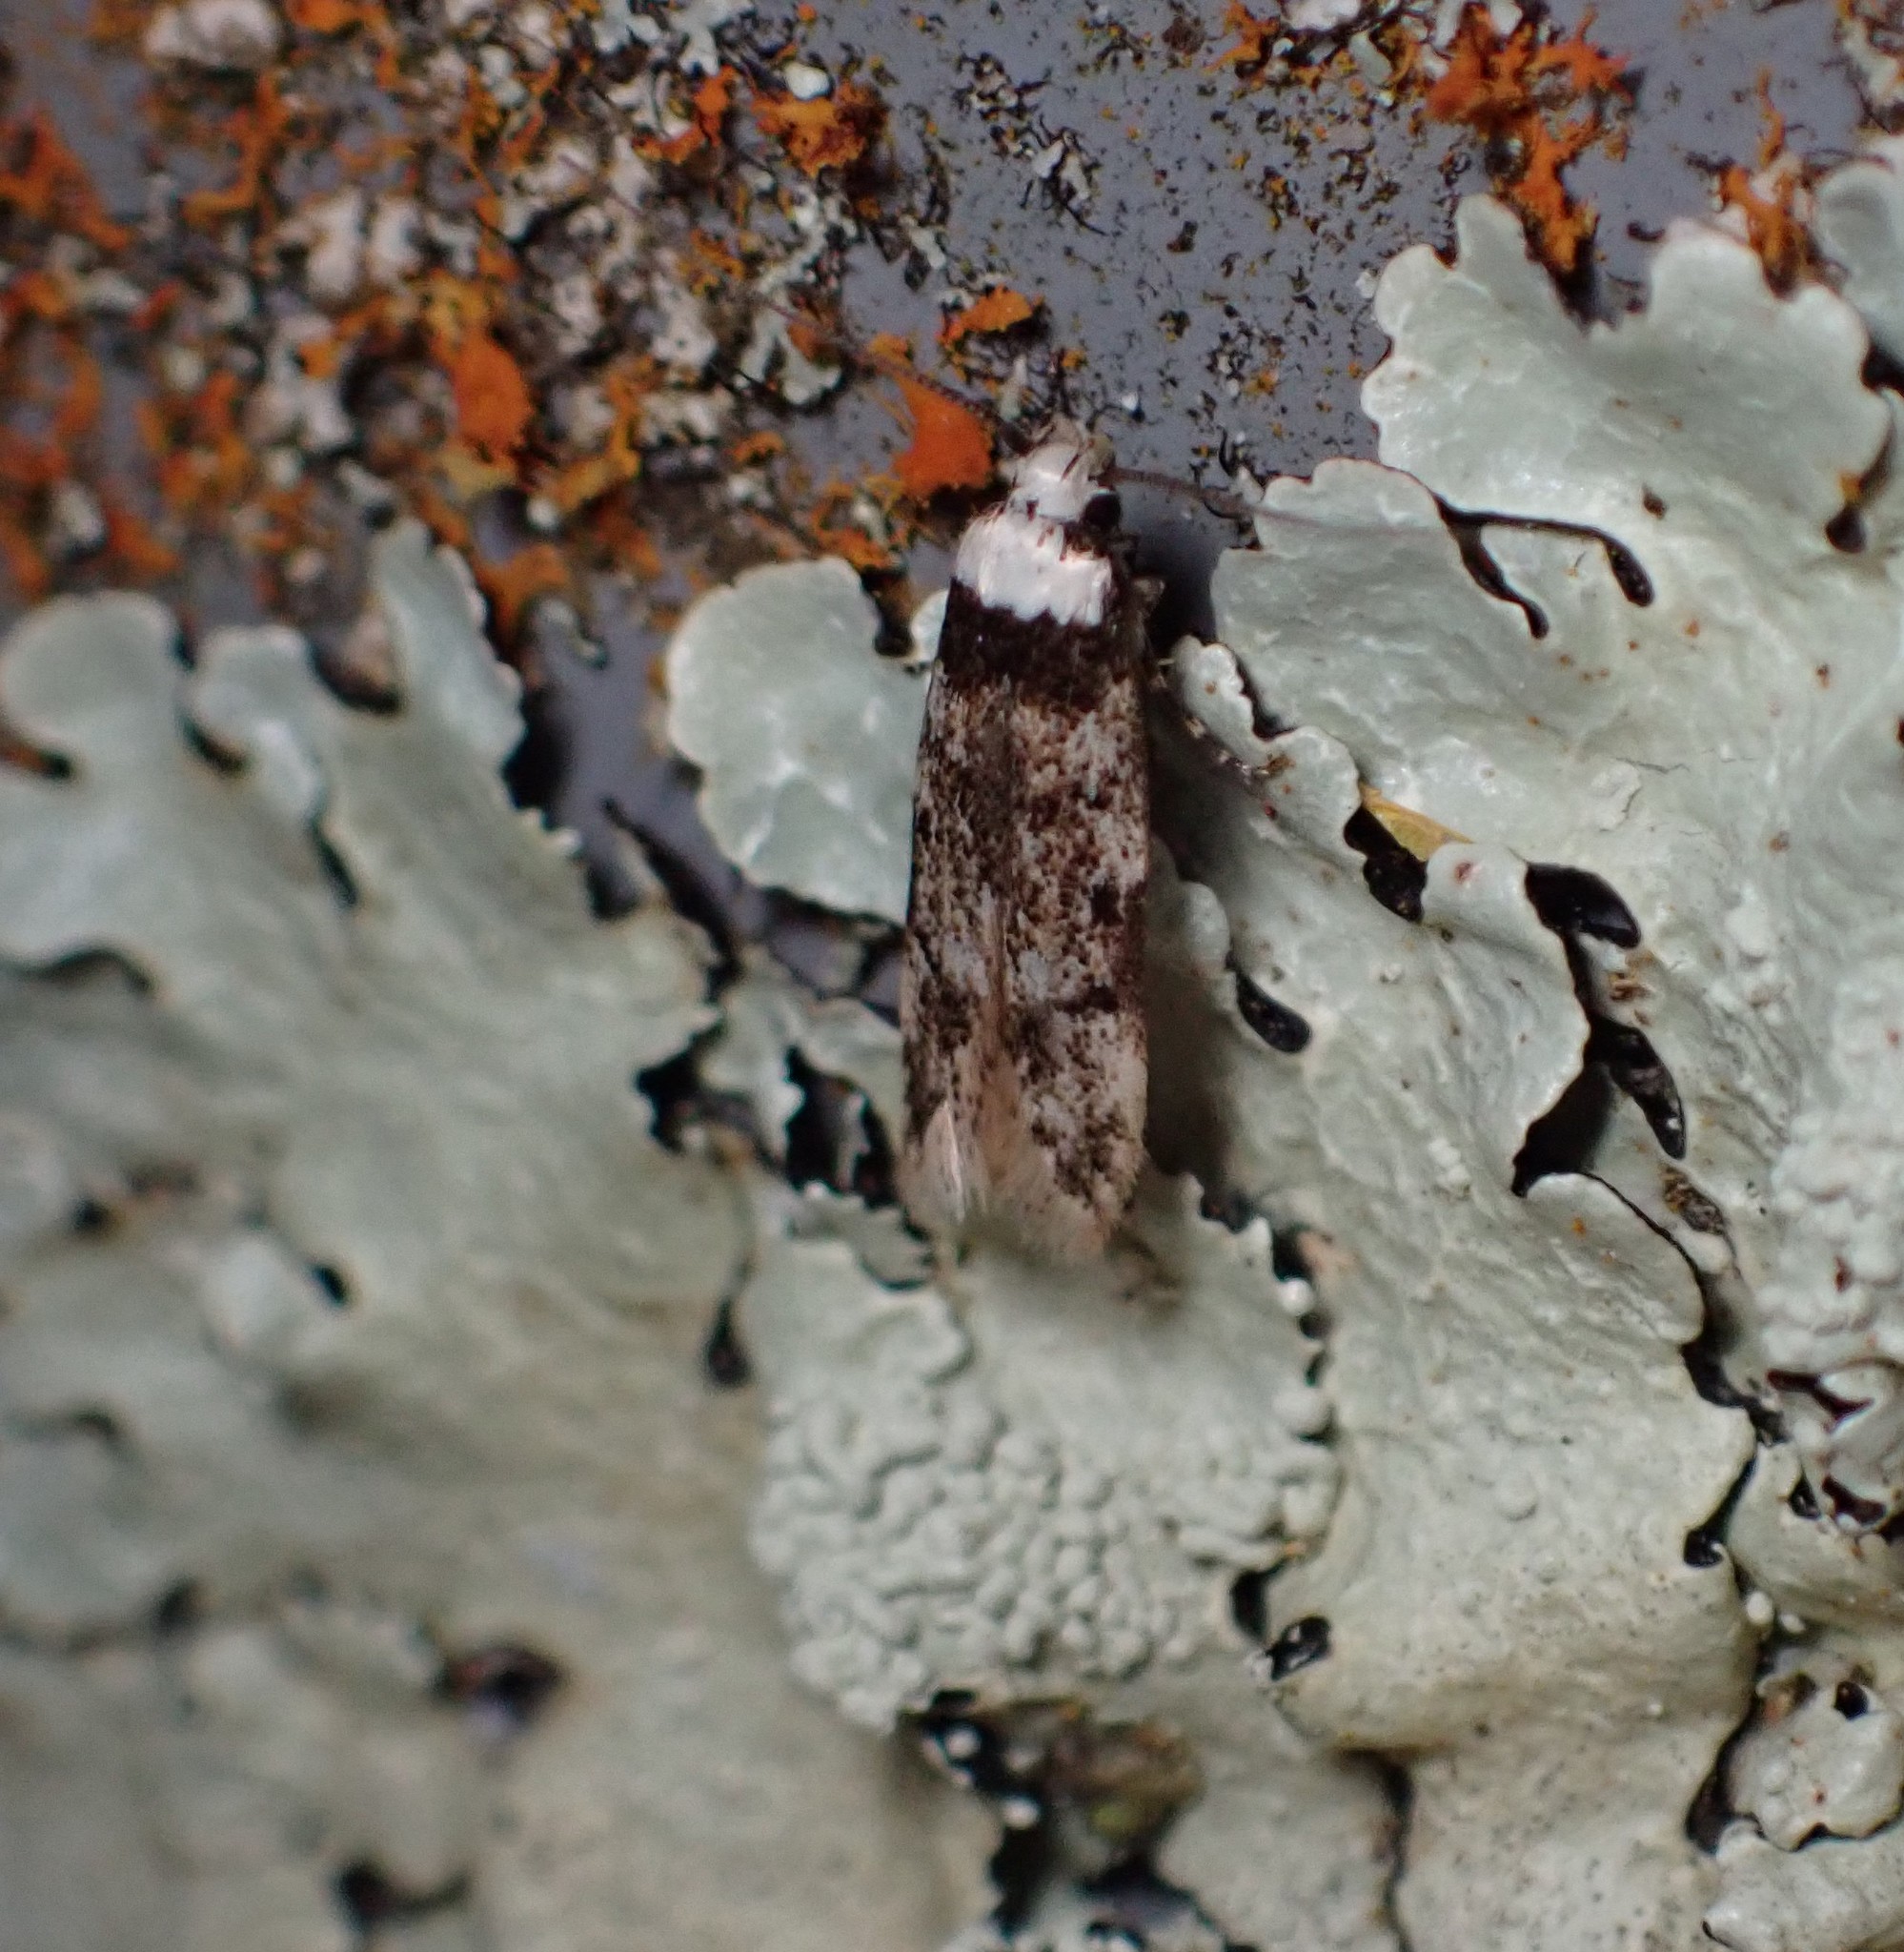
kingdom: Animalia
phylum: Arthropoda
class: Insecta
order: Lepidoptera
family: Oecophoridae
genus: Endrosis
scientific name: Endrosis sarcitrella
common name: White-shouldered house moth
